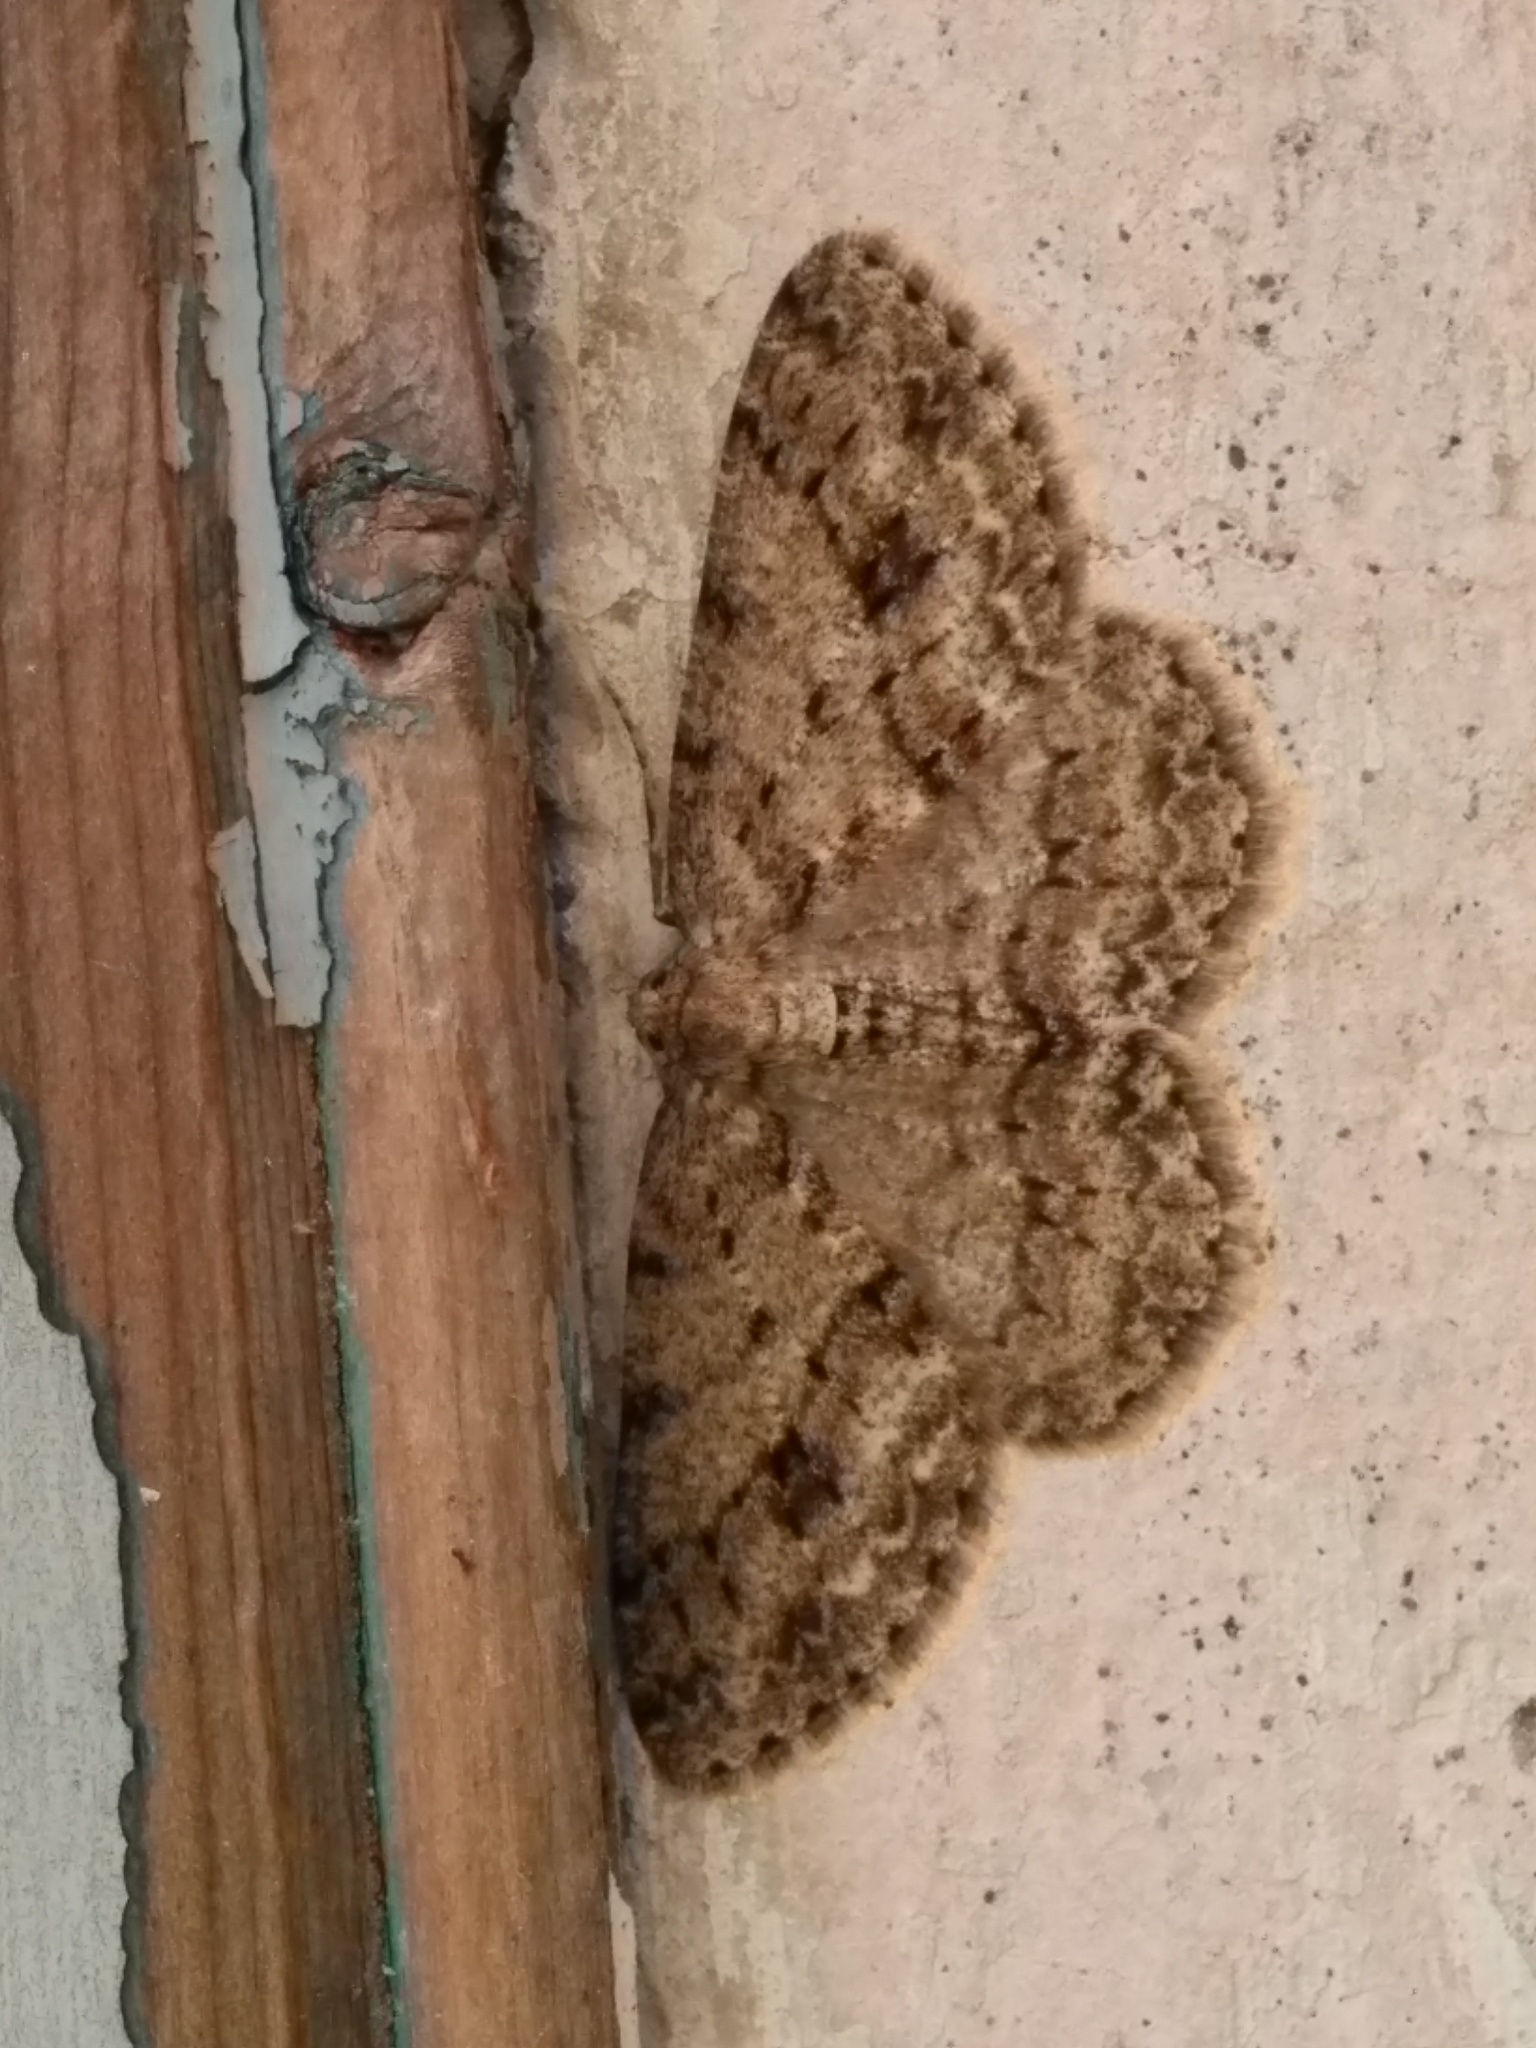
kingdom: Animalia
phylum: Arthropoda
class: Insecta
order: Lepidoptera
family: Geometridae
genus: Ectropis
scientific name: Ectropis crepuscularia
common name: Engrailed
